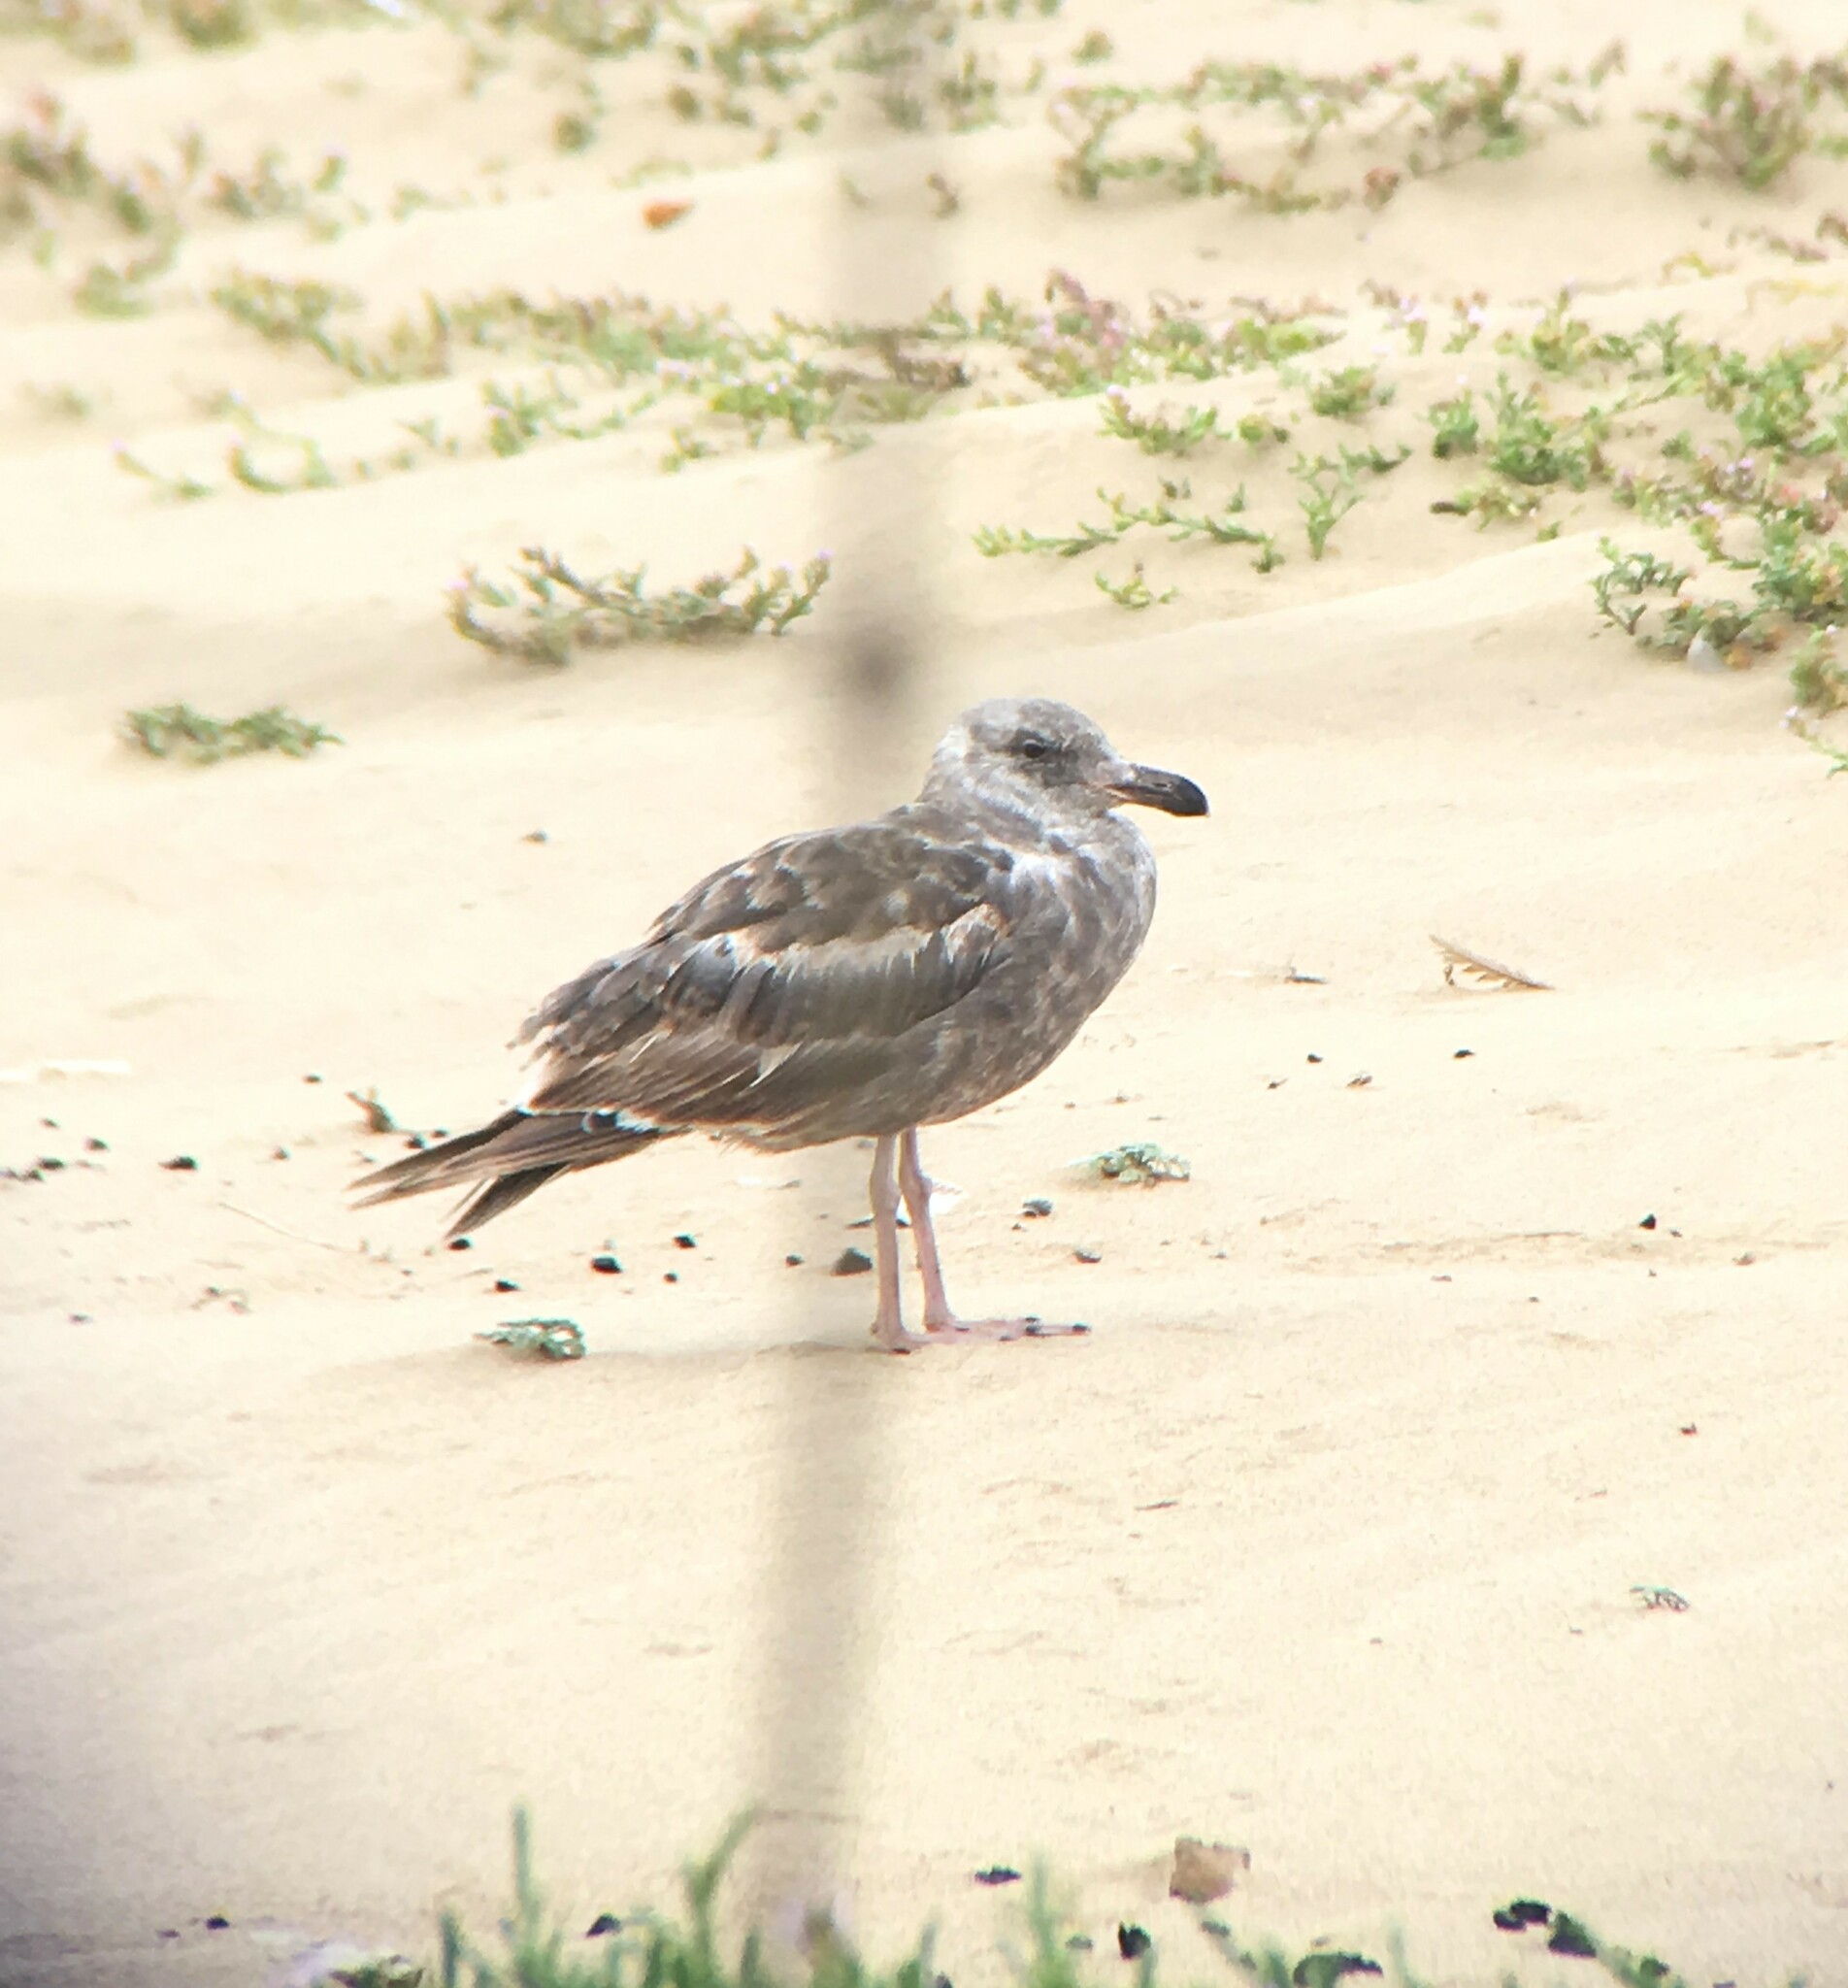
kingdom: Animalia
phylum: Chordata
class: Aves
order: Charadriiformes
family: Laridae
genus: Larus
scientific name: Larus occidentalis
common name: Western gull
